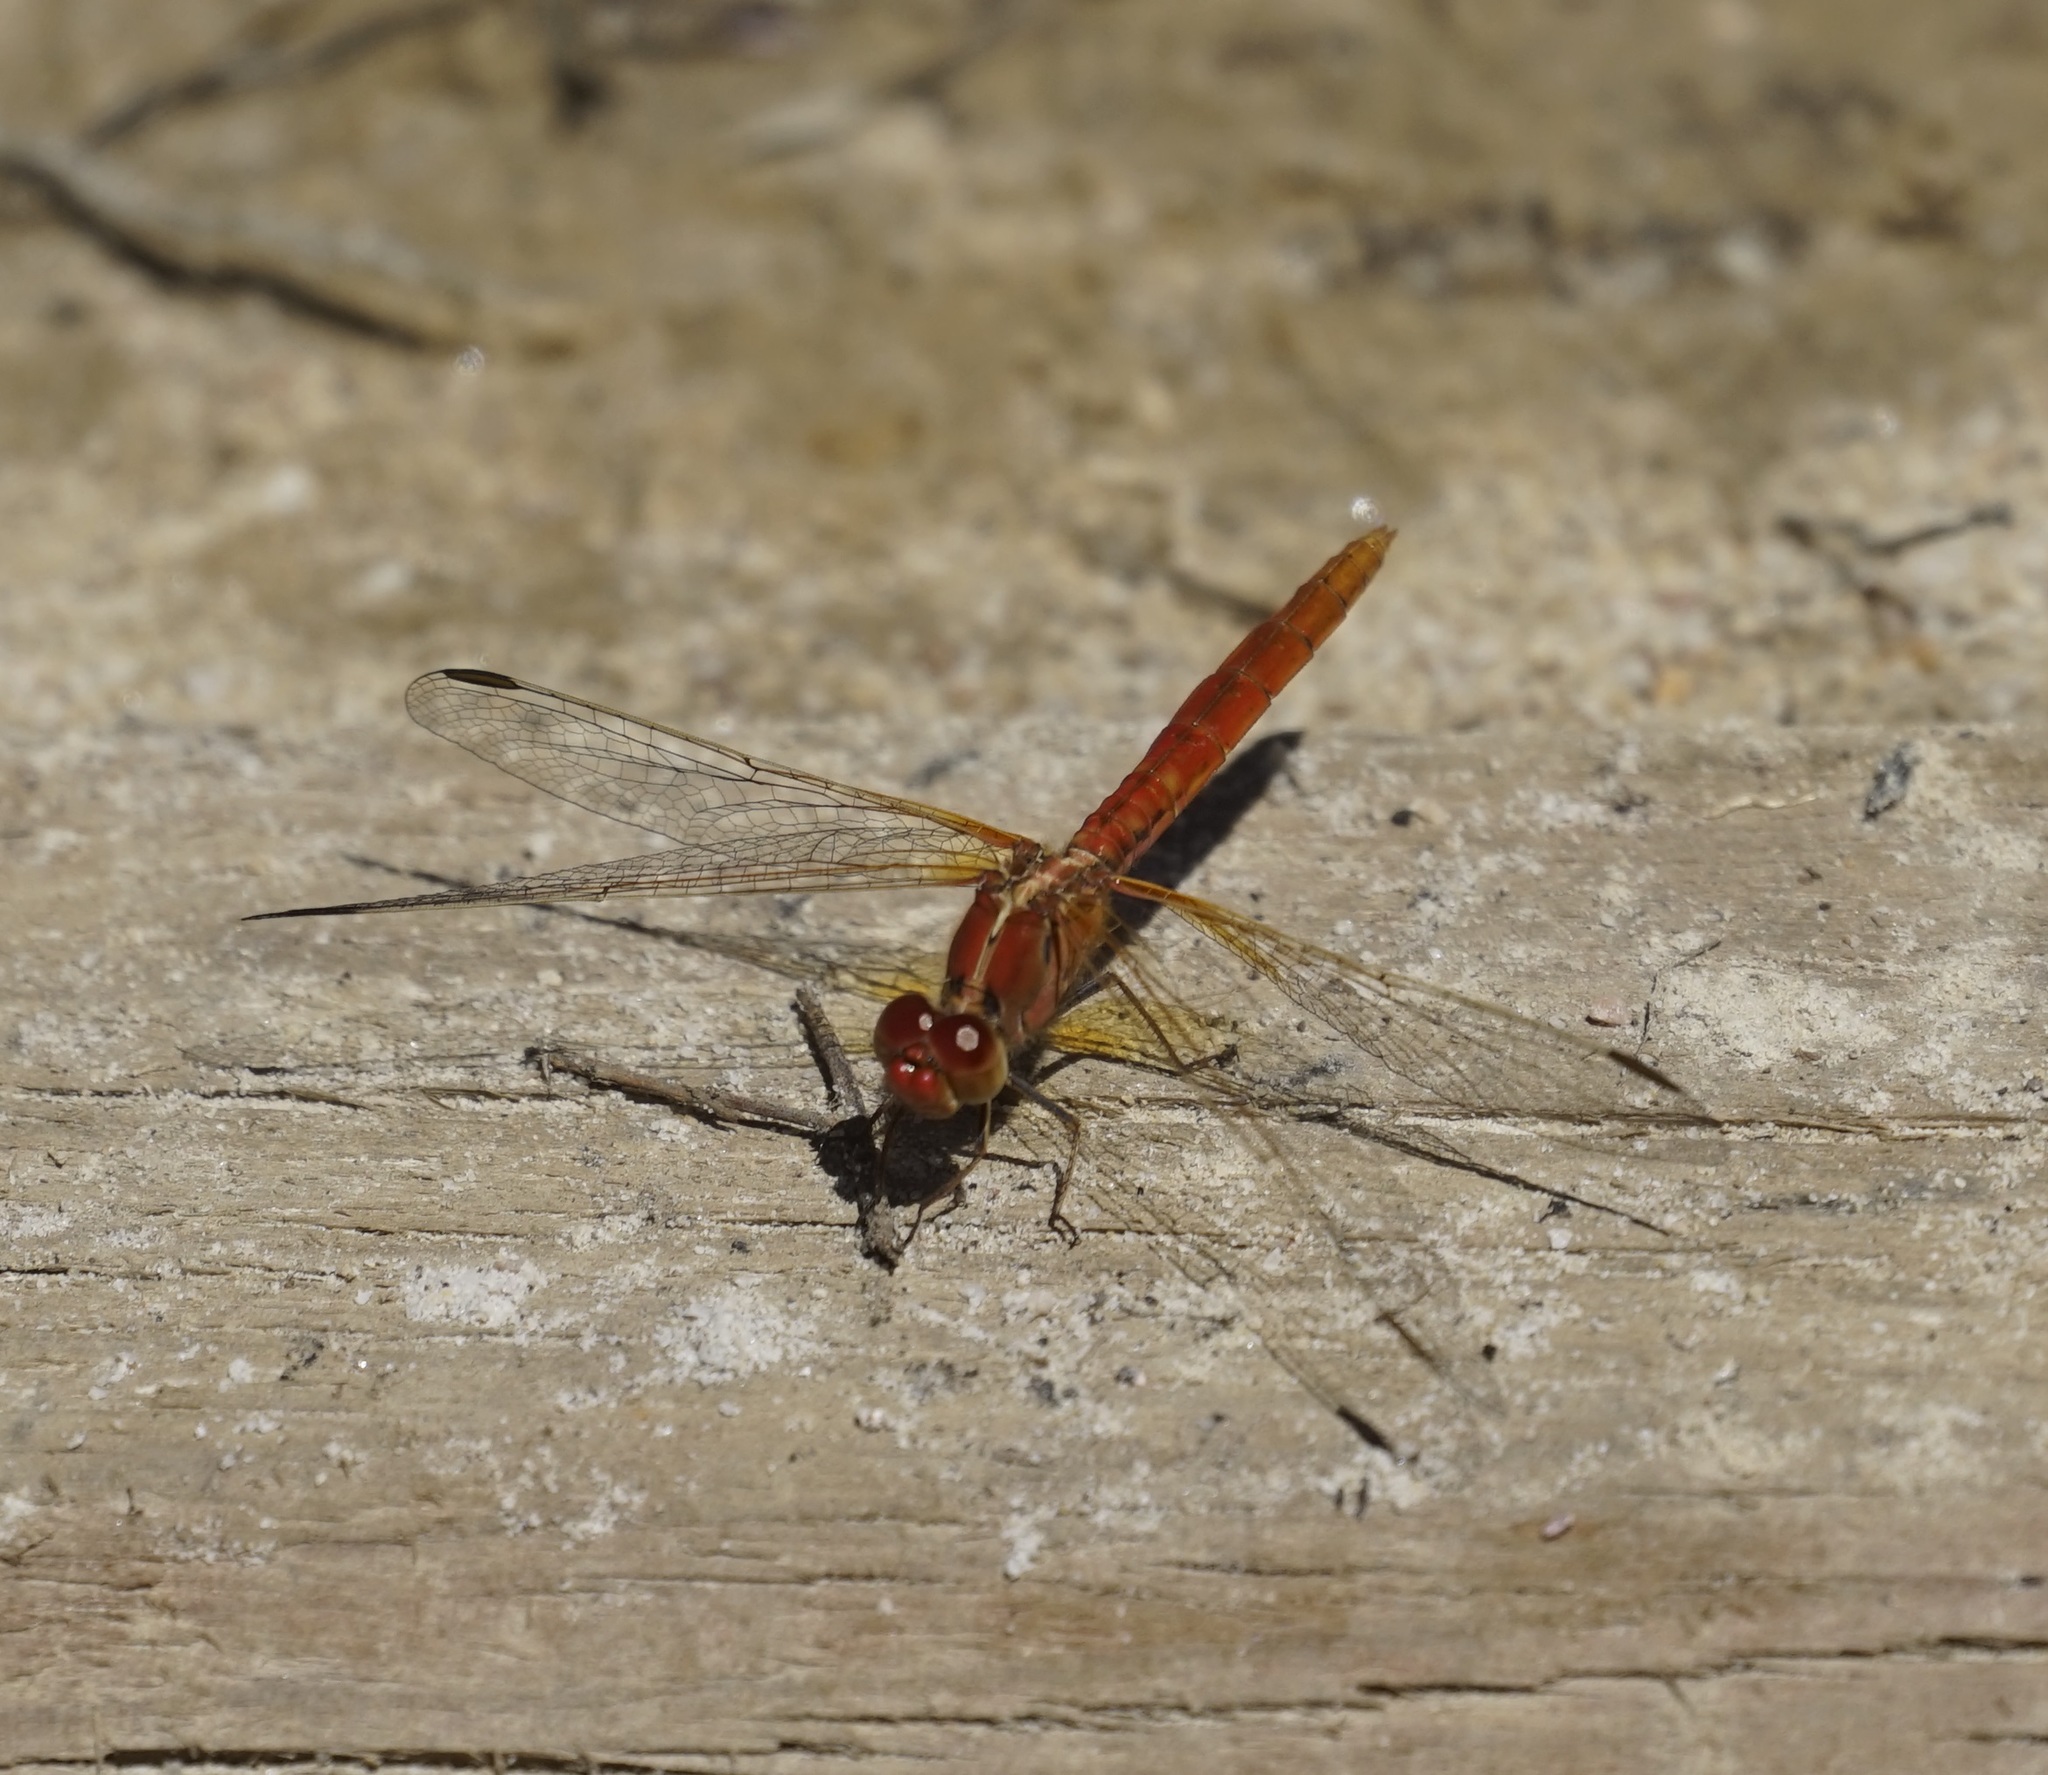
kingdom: Animalia
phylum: Arthropoda
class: Insecta
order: Odonata
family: Libellulidae
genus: Diplacodes
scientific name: Diplacodes haematodes
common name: Scarlet percher
